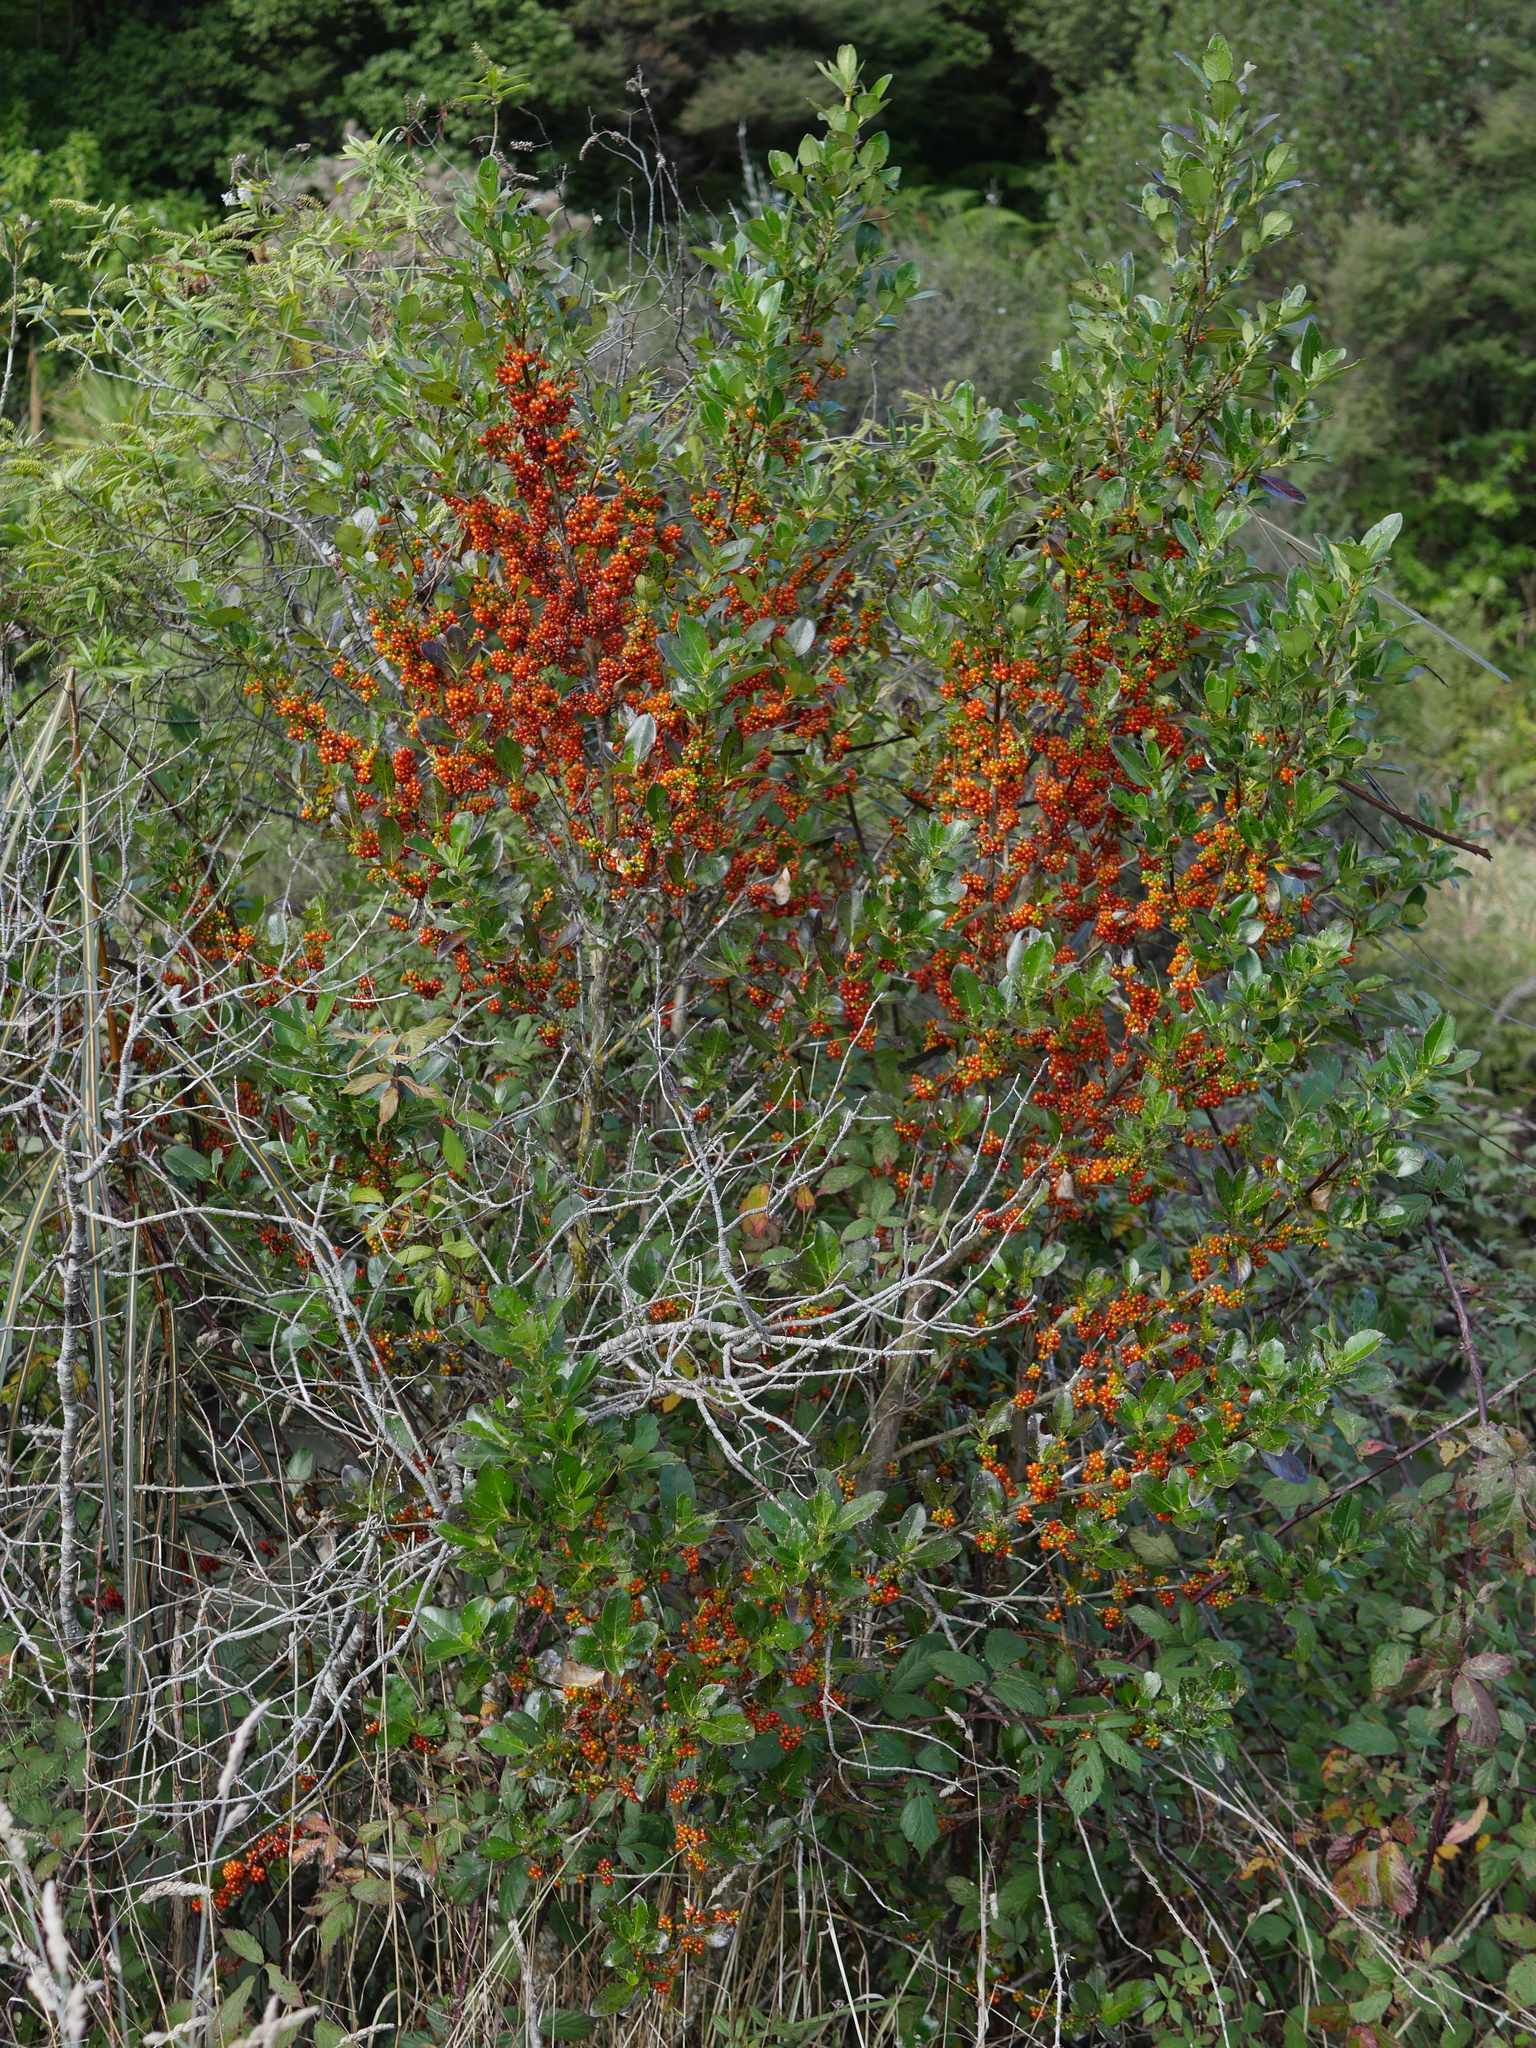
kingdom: Plantae
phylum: Tracheophyta
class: Magnoliopsida
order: Gentianales
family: Rubiaceae
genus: Coprosma
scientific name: Coprosma robusta
